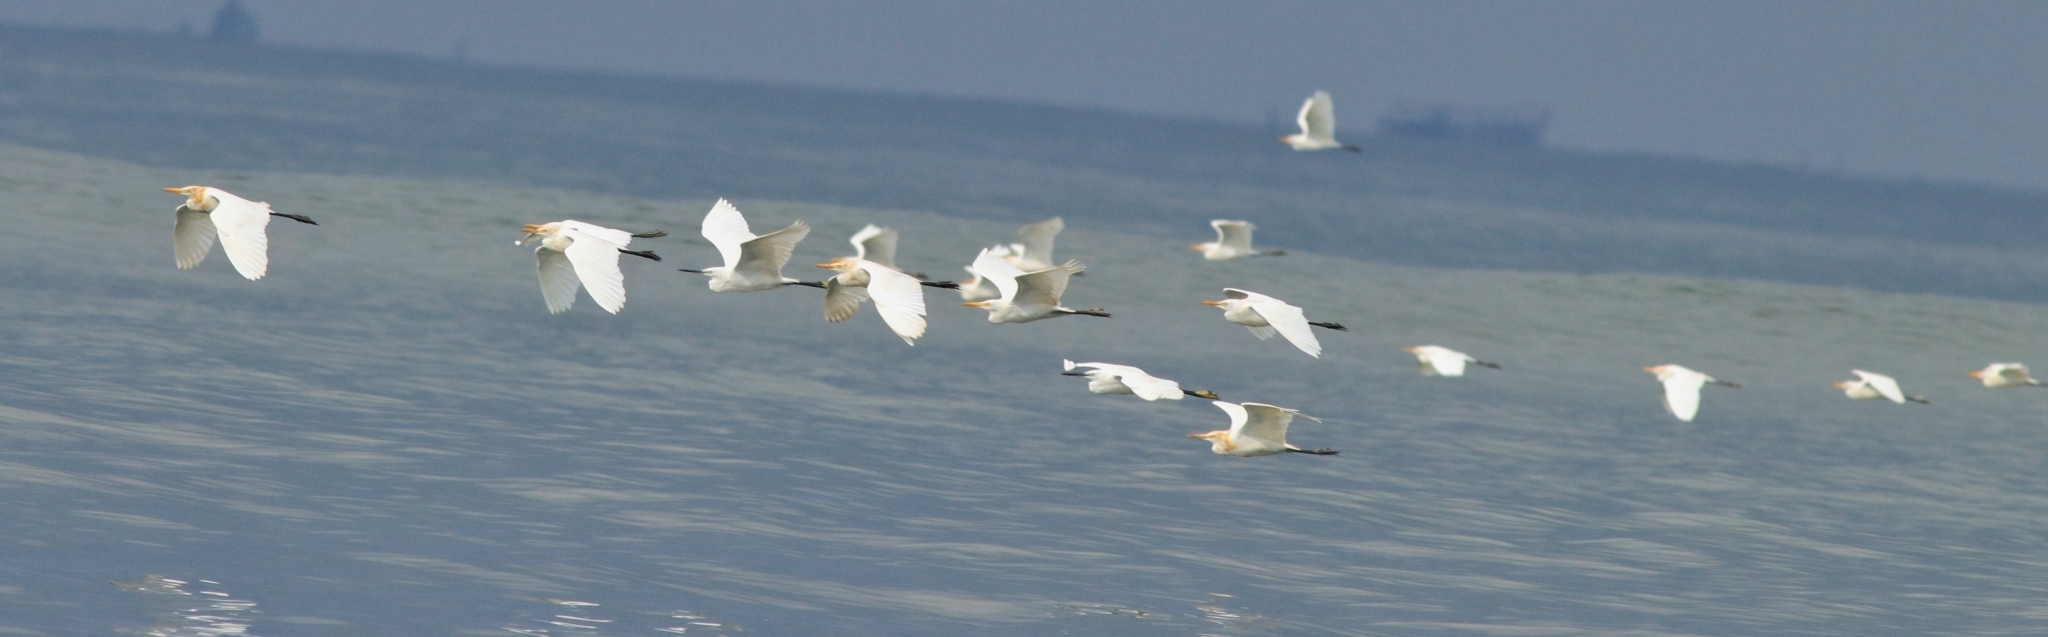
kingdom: Animalia
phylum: Chordata
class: Aves
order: Pelecaniformes
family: Ardeidae
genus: Bubulcus
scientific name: Bubulcus coromandus
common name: Eastern cattle egret
